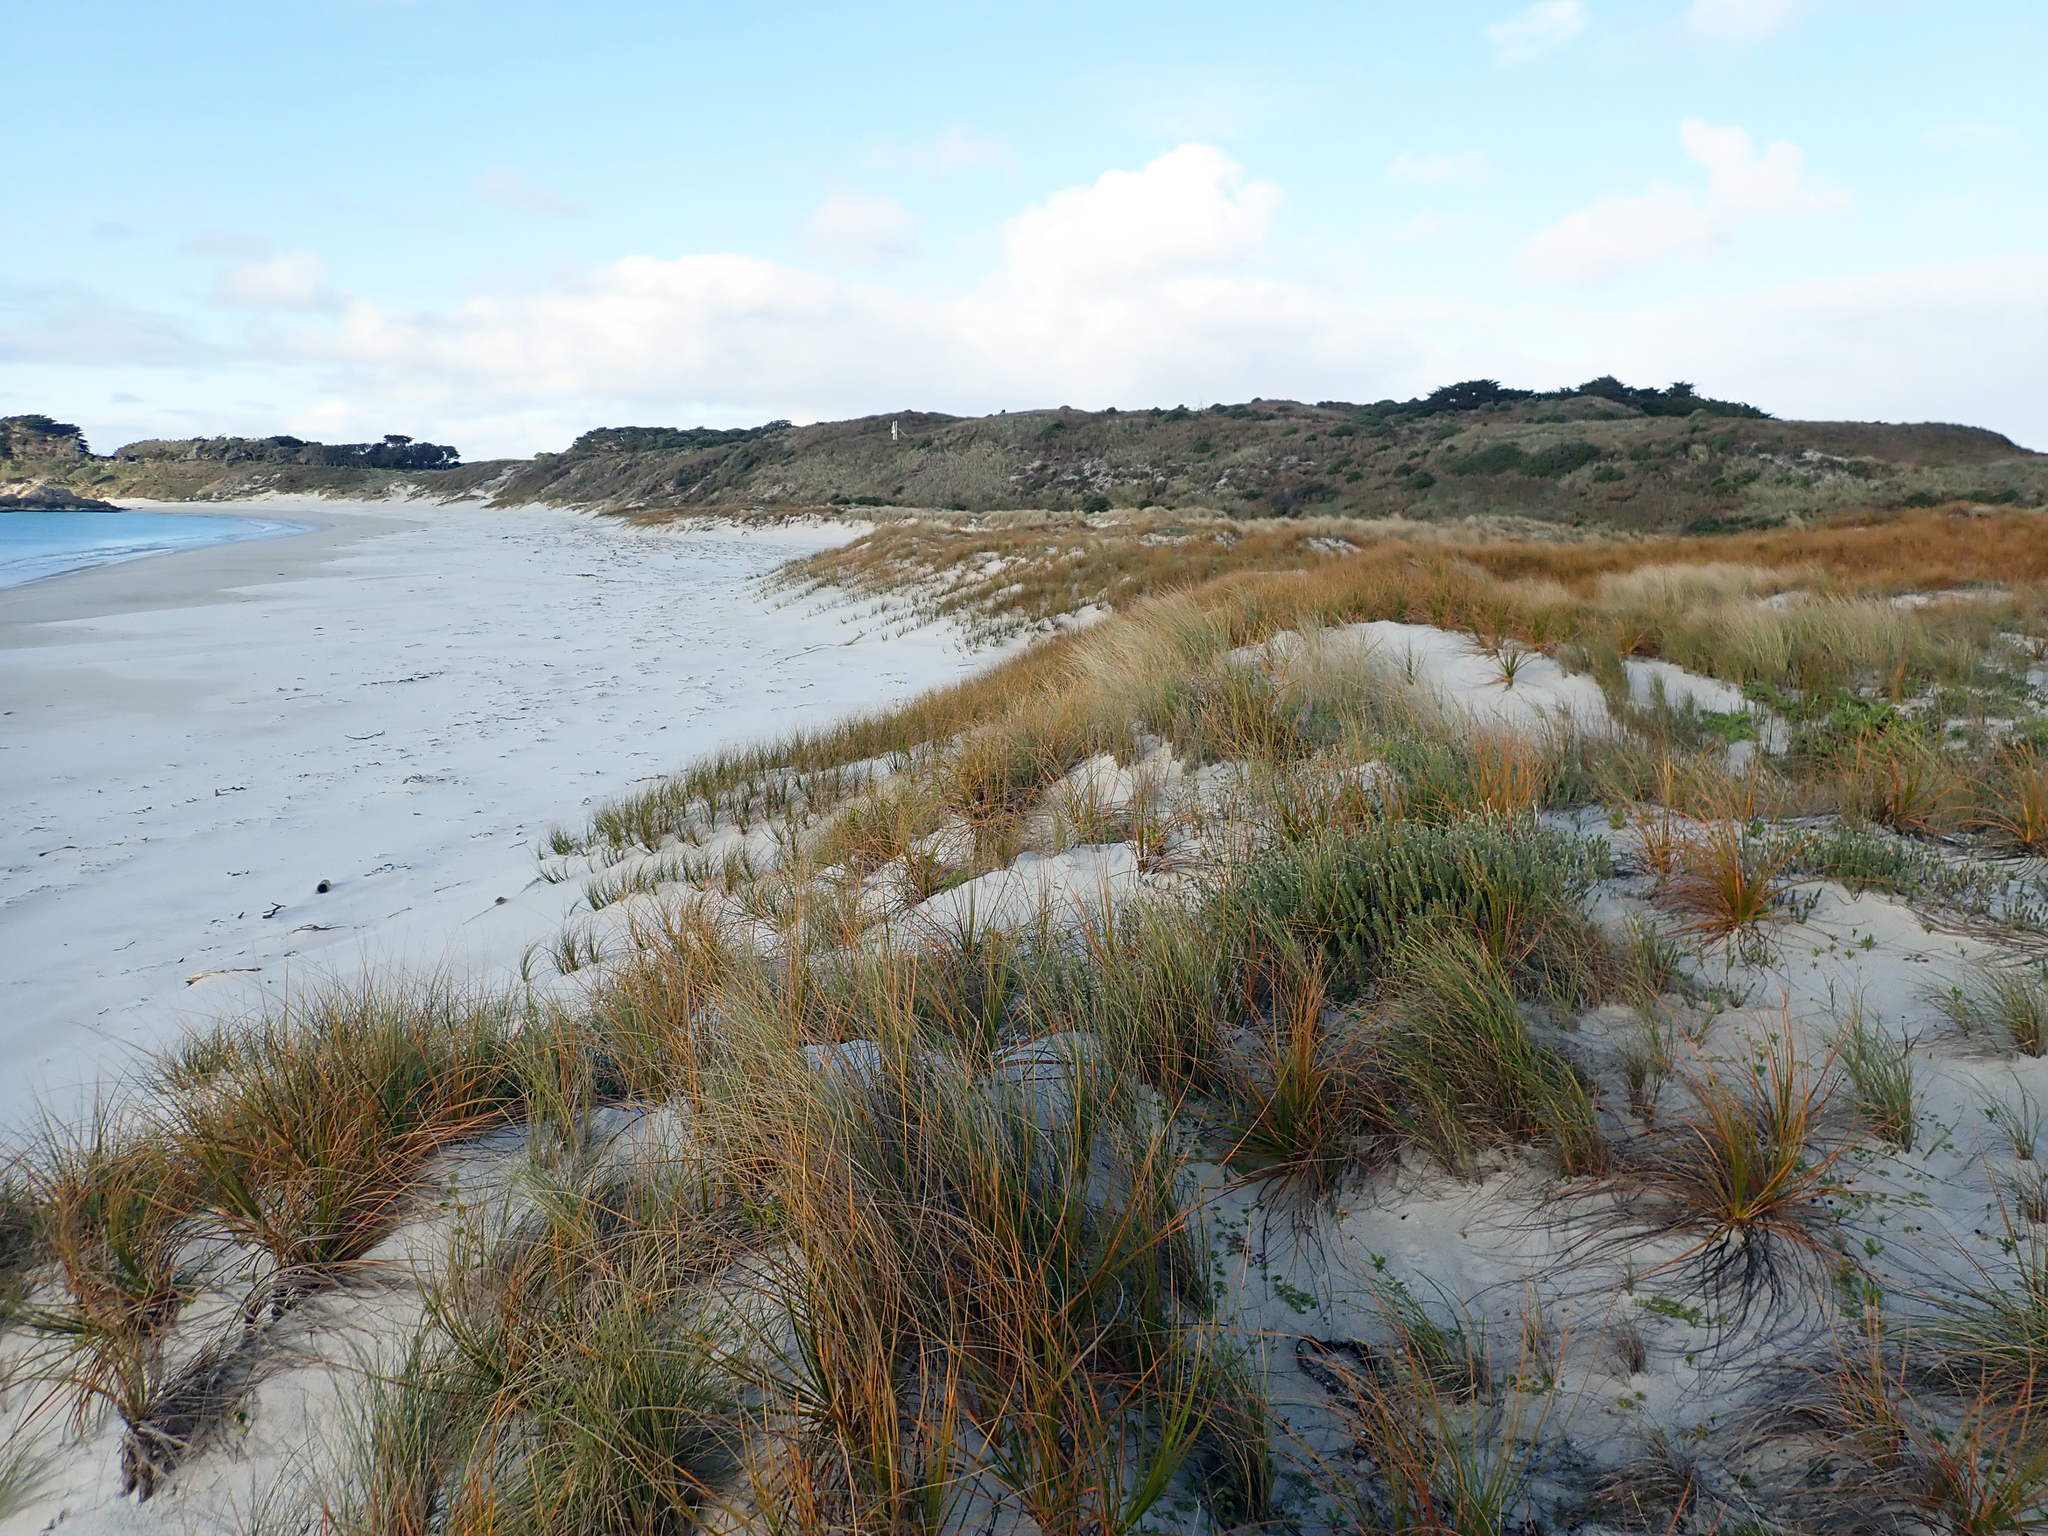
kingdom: Plantae
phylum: Tracheophyta
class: Liliopsida
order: Poales
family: Cyperaceae
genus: Ficinia
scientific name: Ficinia spiralis
